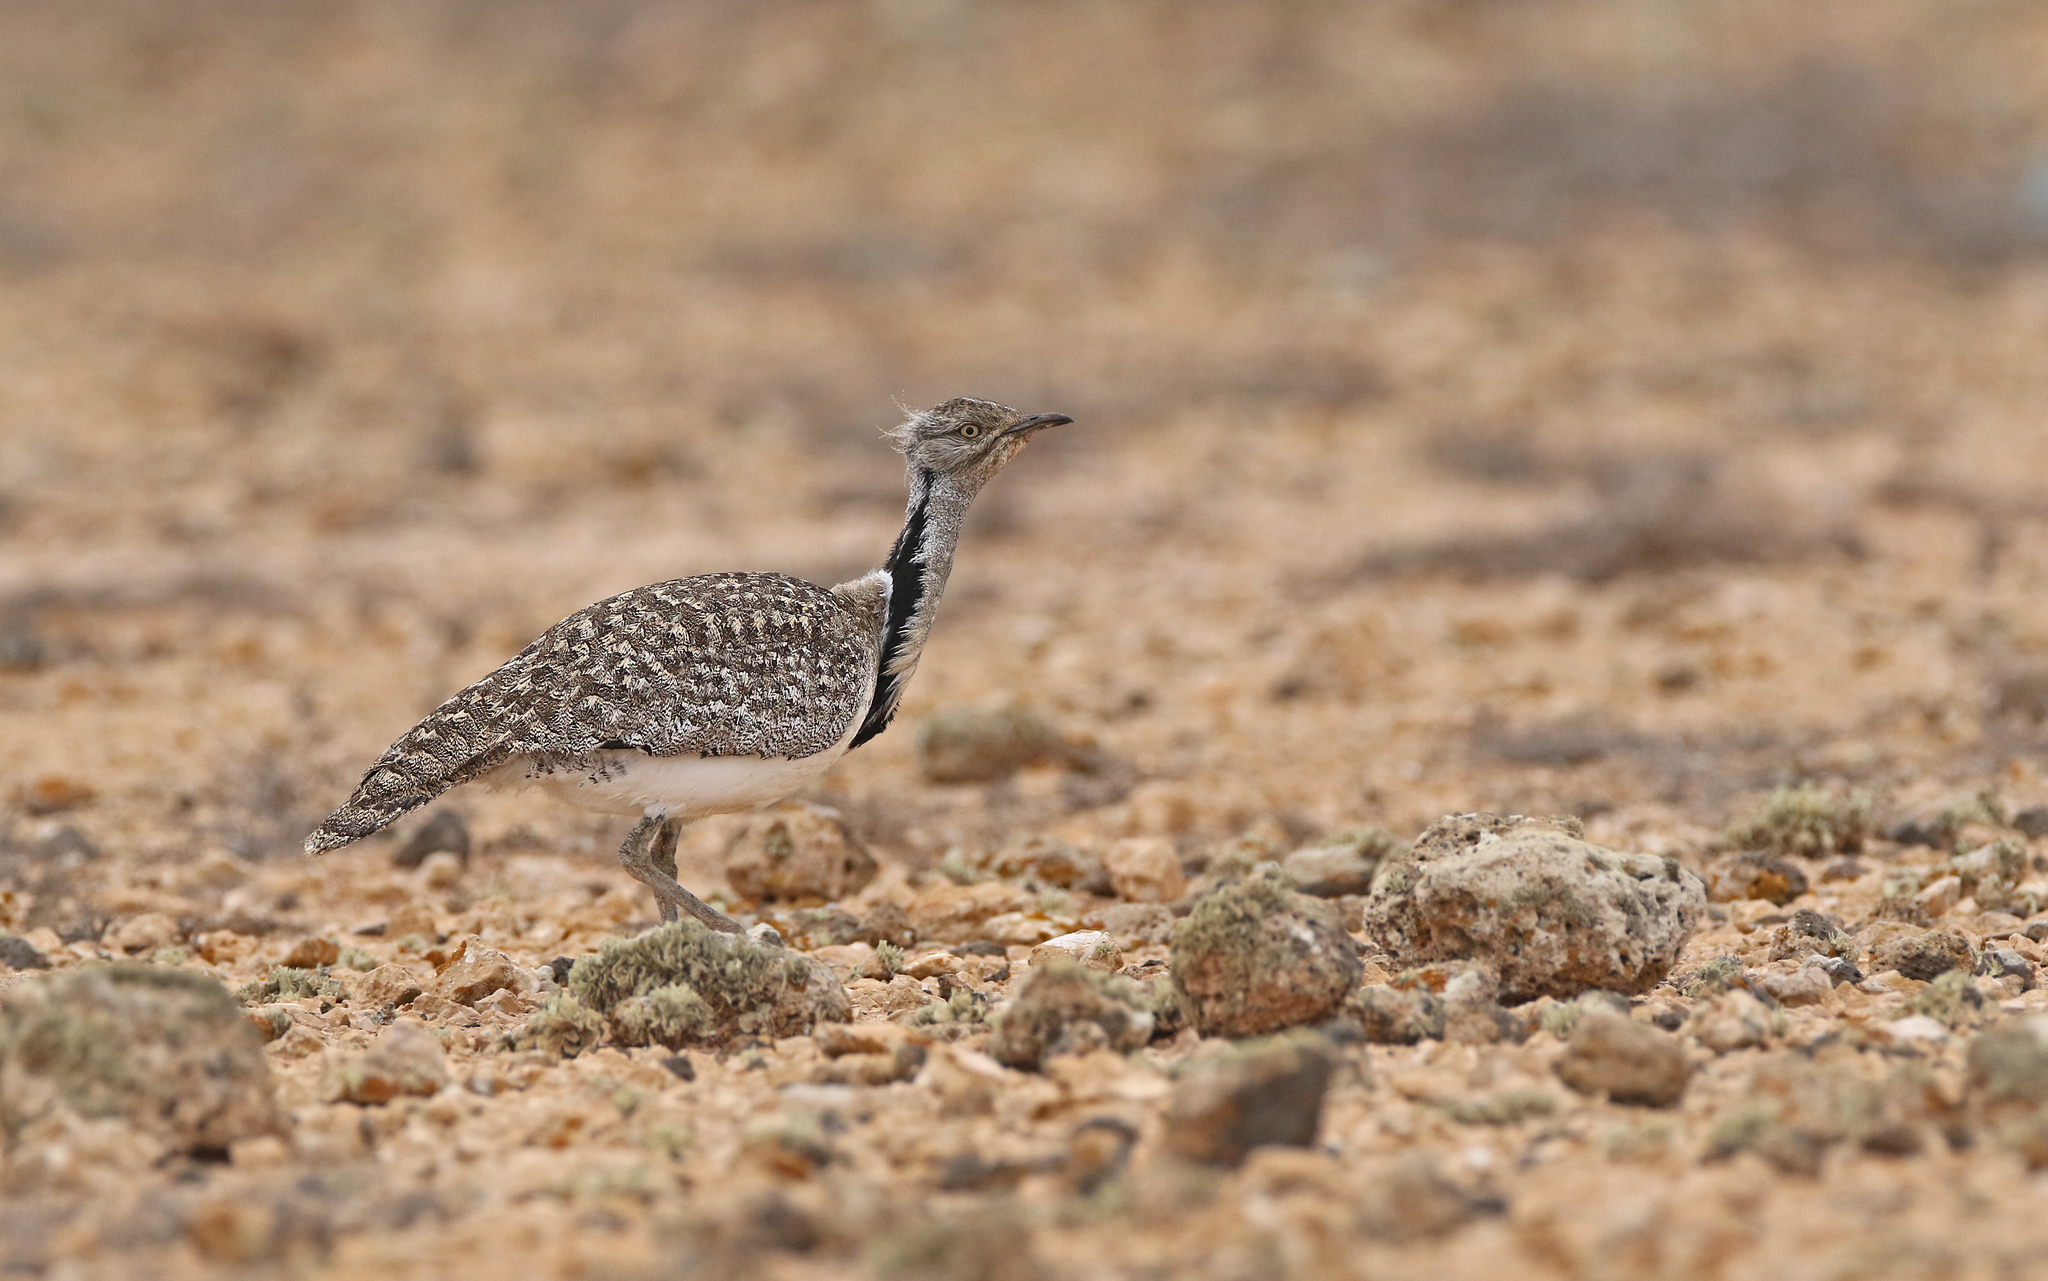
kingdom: Animalia
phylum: Chordata
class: Aves
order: Otidiformes
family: Otididae
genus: Chlamydotis
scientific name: Chlamydotis undulata
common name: Houbara bustard
